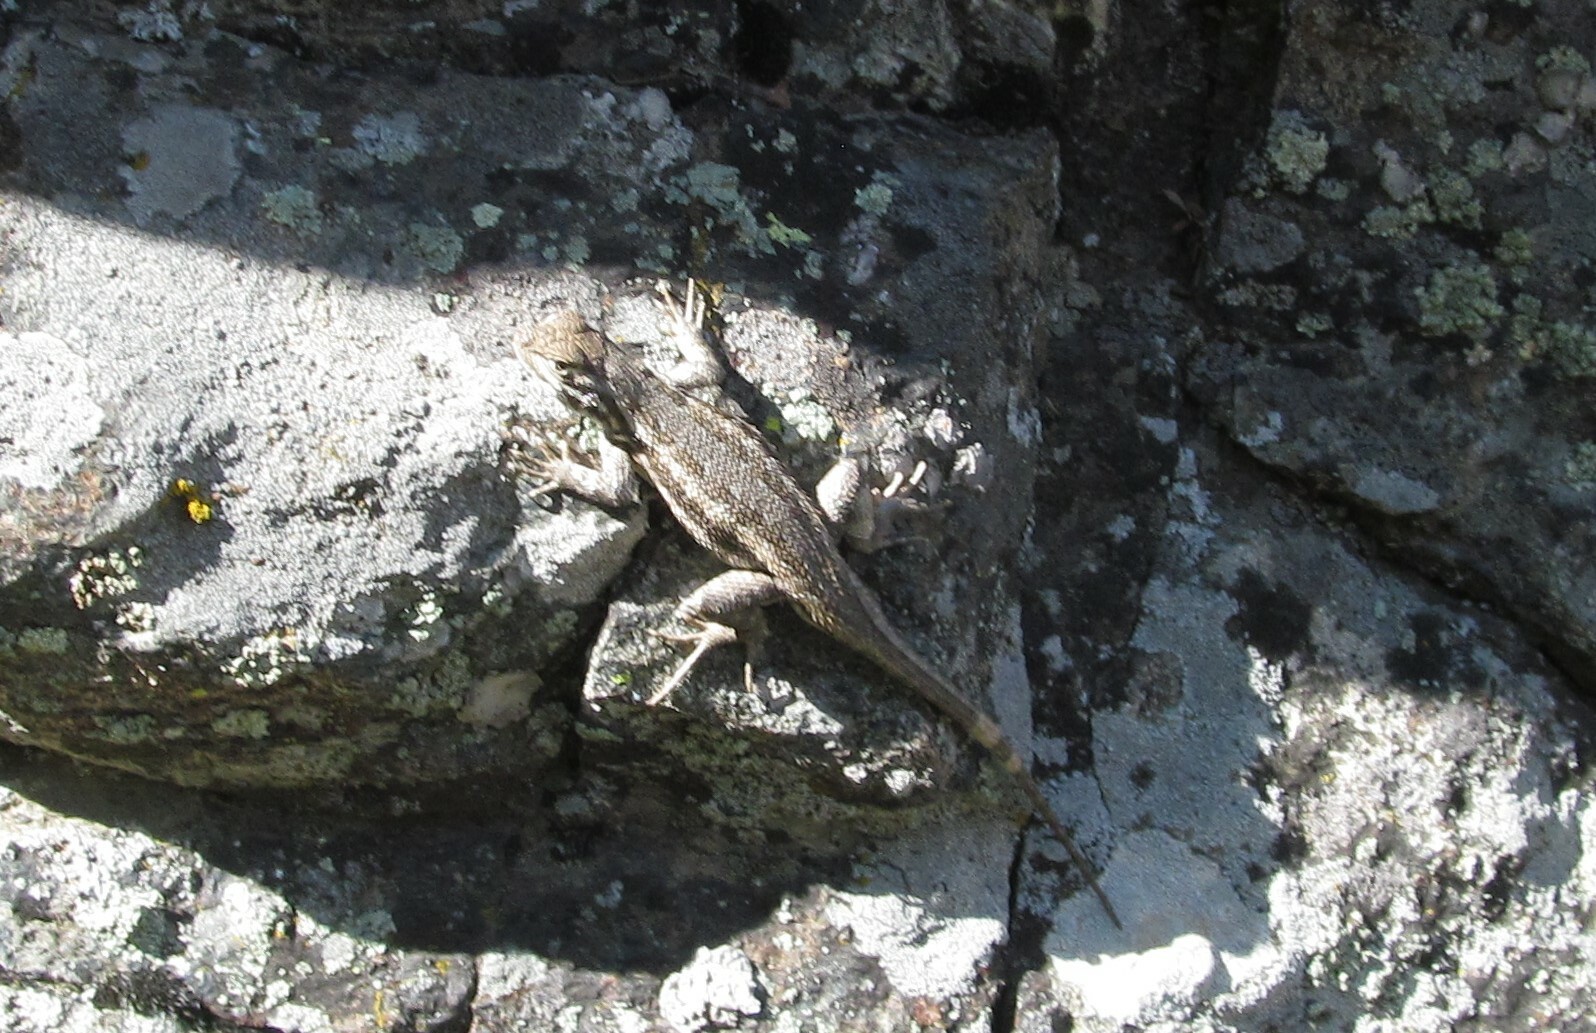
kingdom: Animalia
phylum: Chordata
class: Squamata
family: Phrynosomatidae
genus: Sceloporus
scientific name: Sceloporus graciosus
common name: Sagebrush lizard
